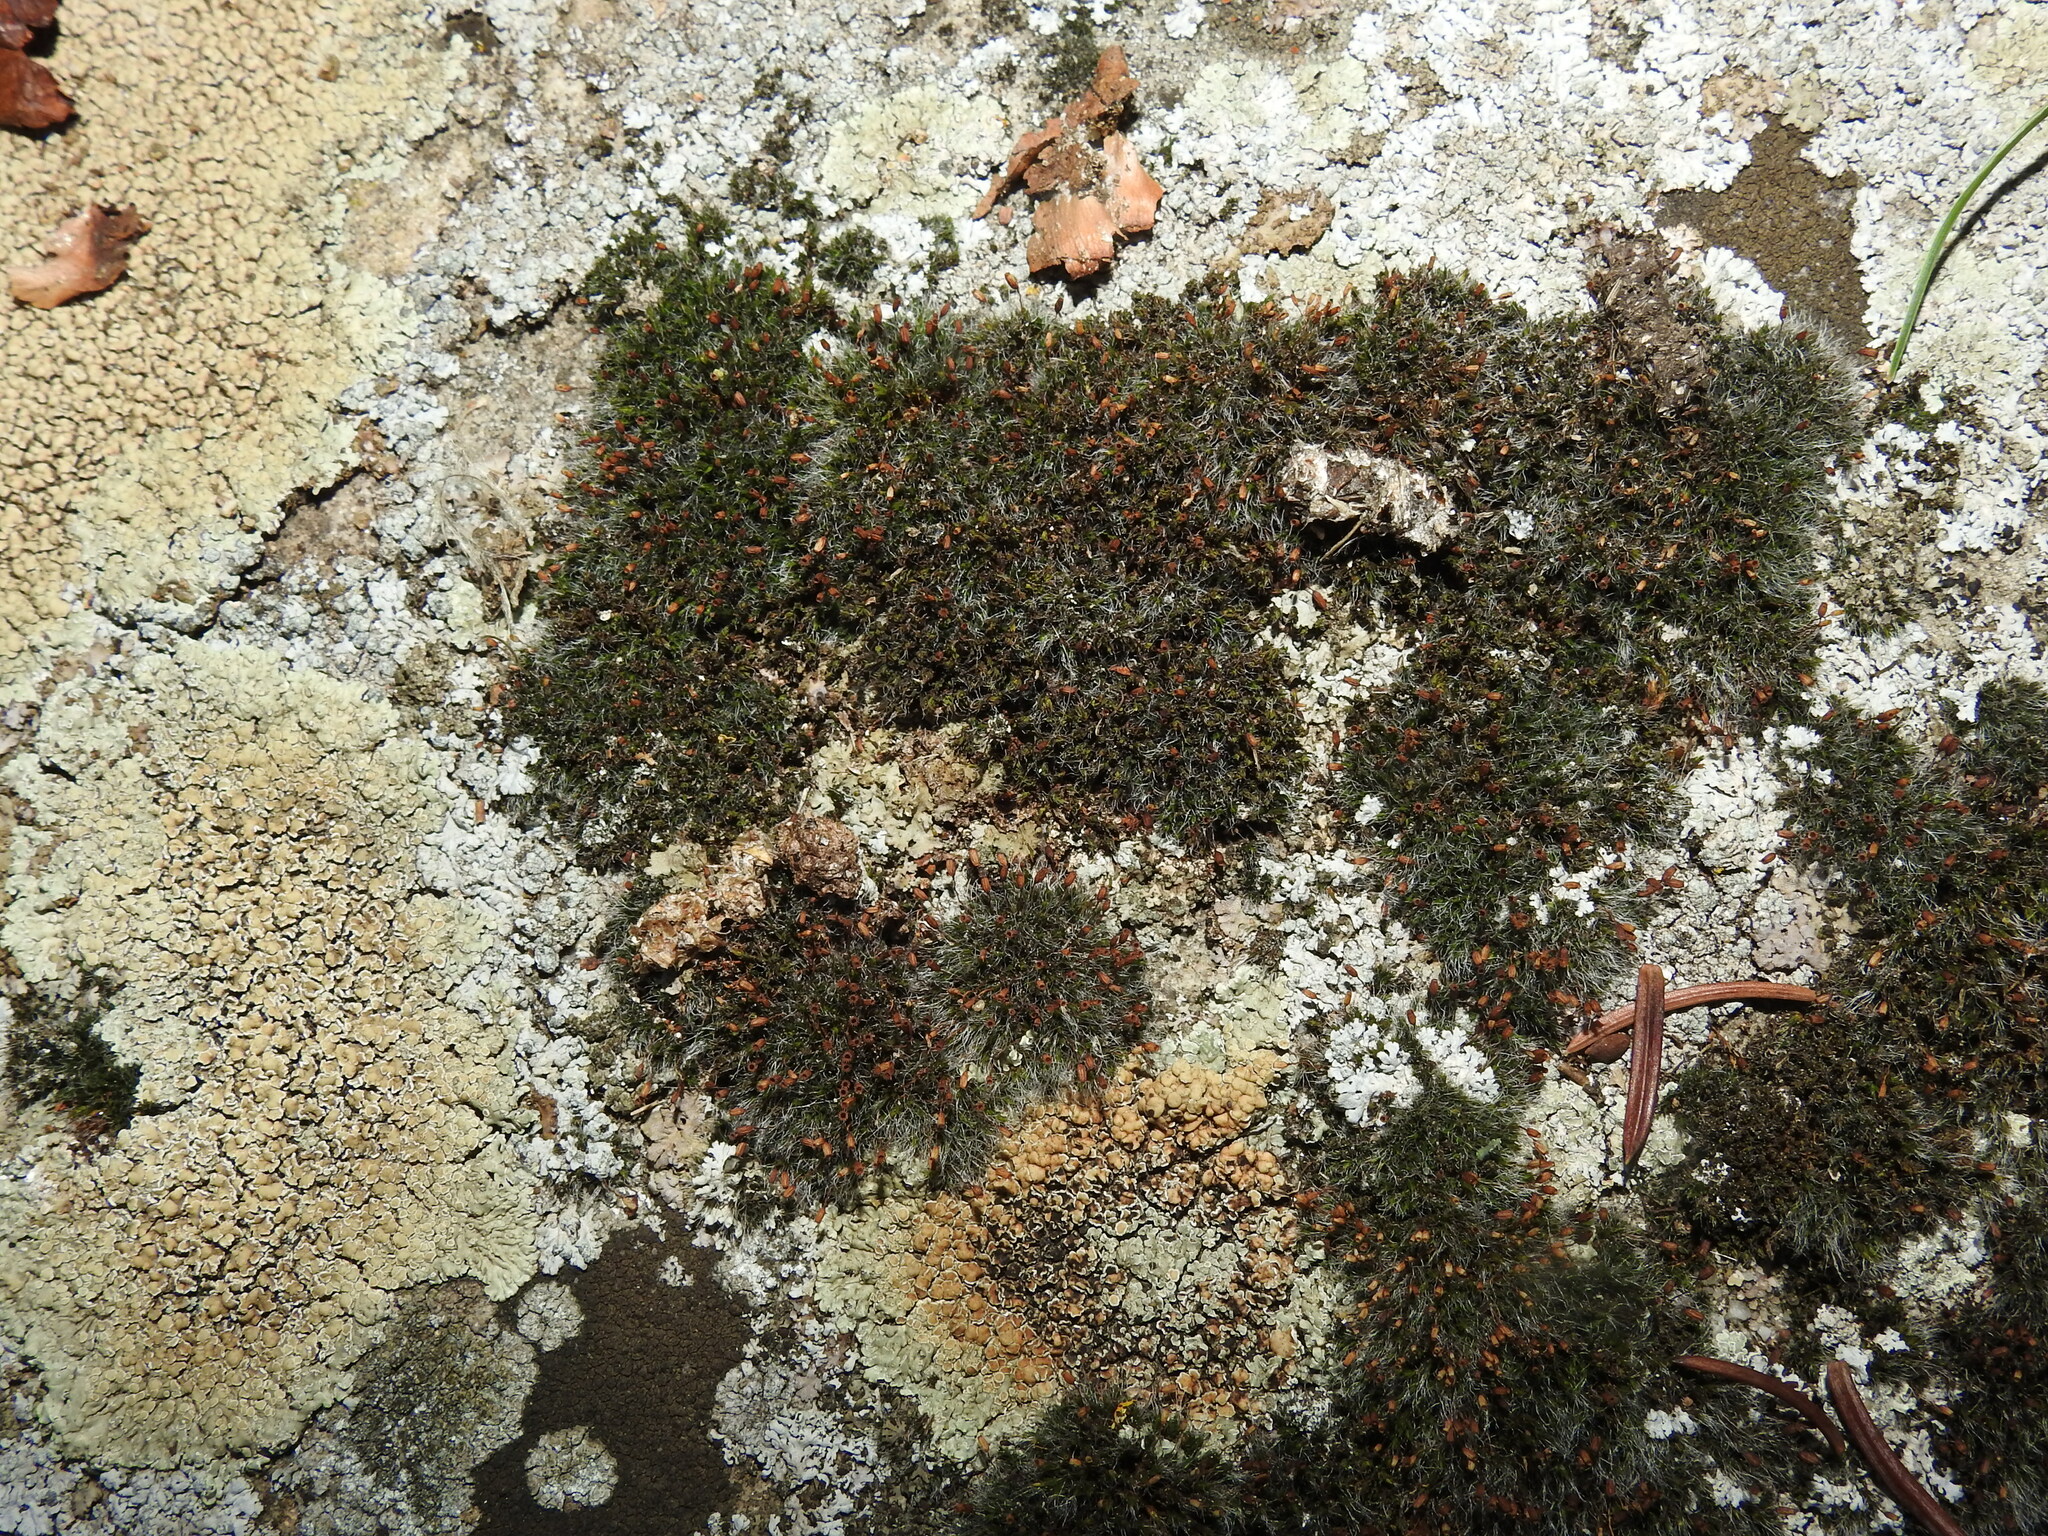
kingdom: Plantae
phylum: Bryophyta
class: Bryopsida
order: Grimmiales
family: Grimmiaceae
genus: Grimmia
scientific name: Grimmia pulvinata
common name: Grey-cushioned grimmia
